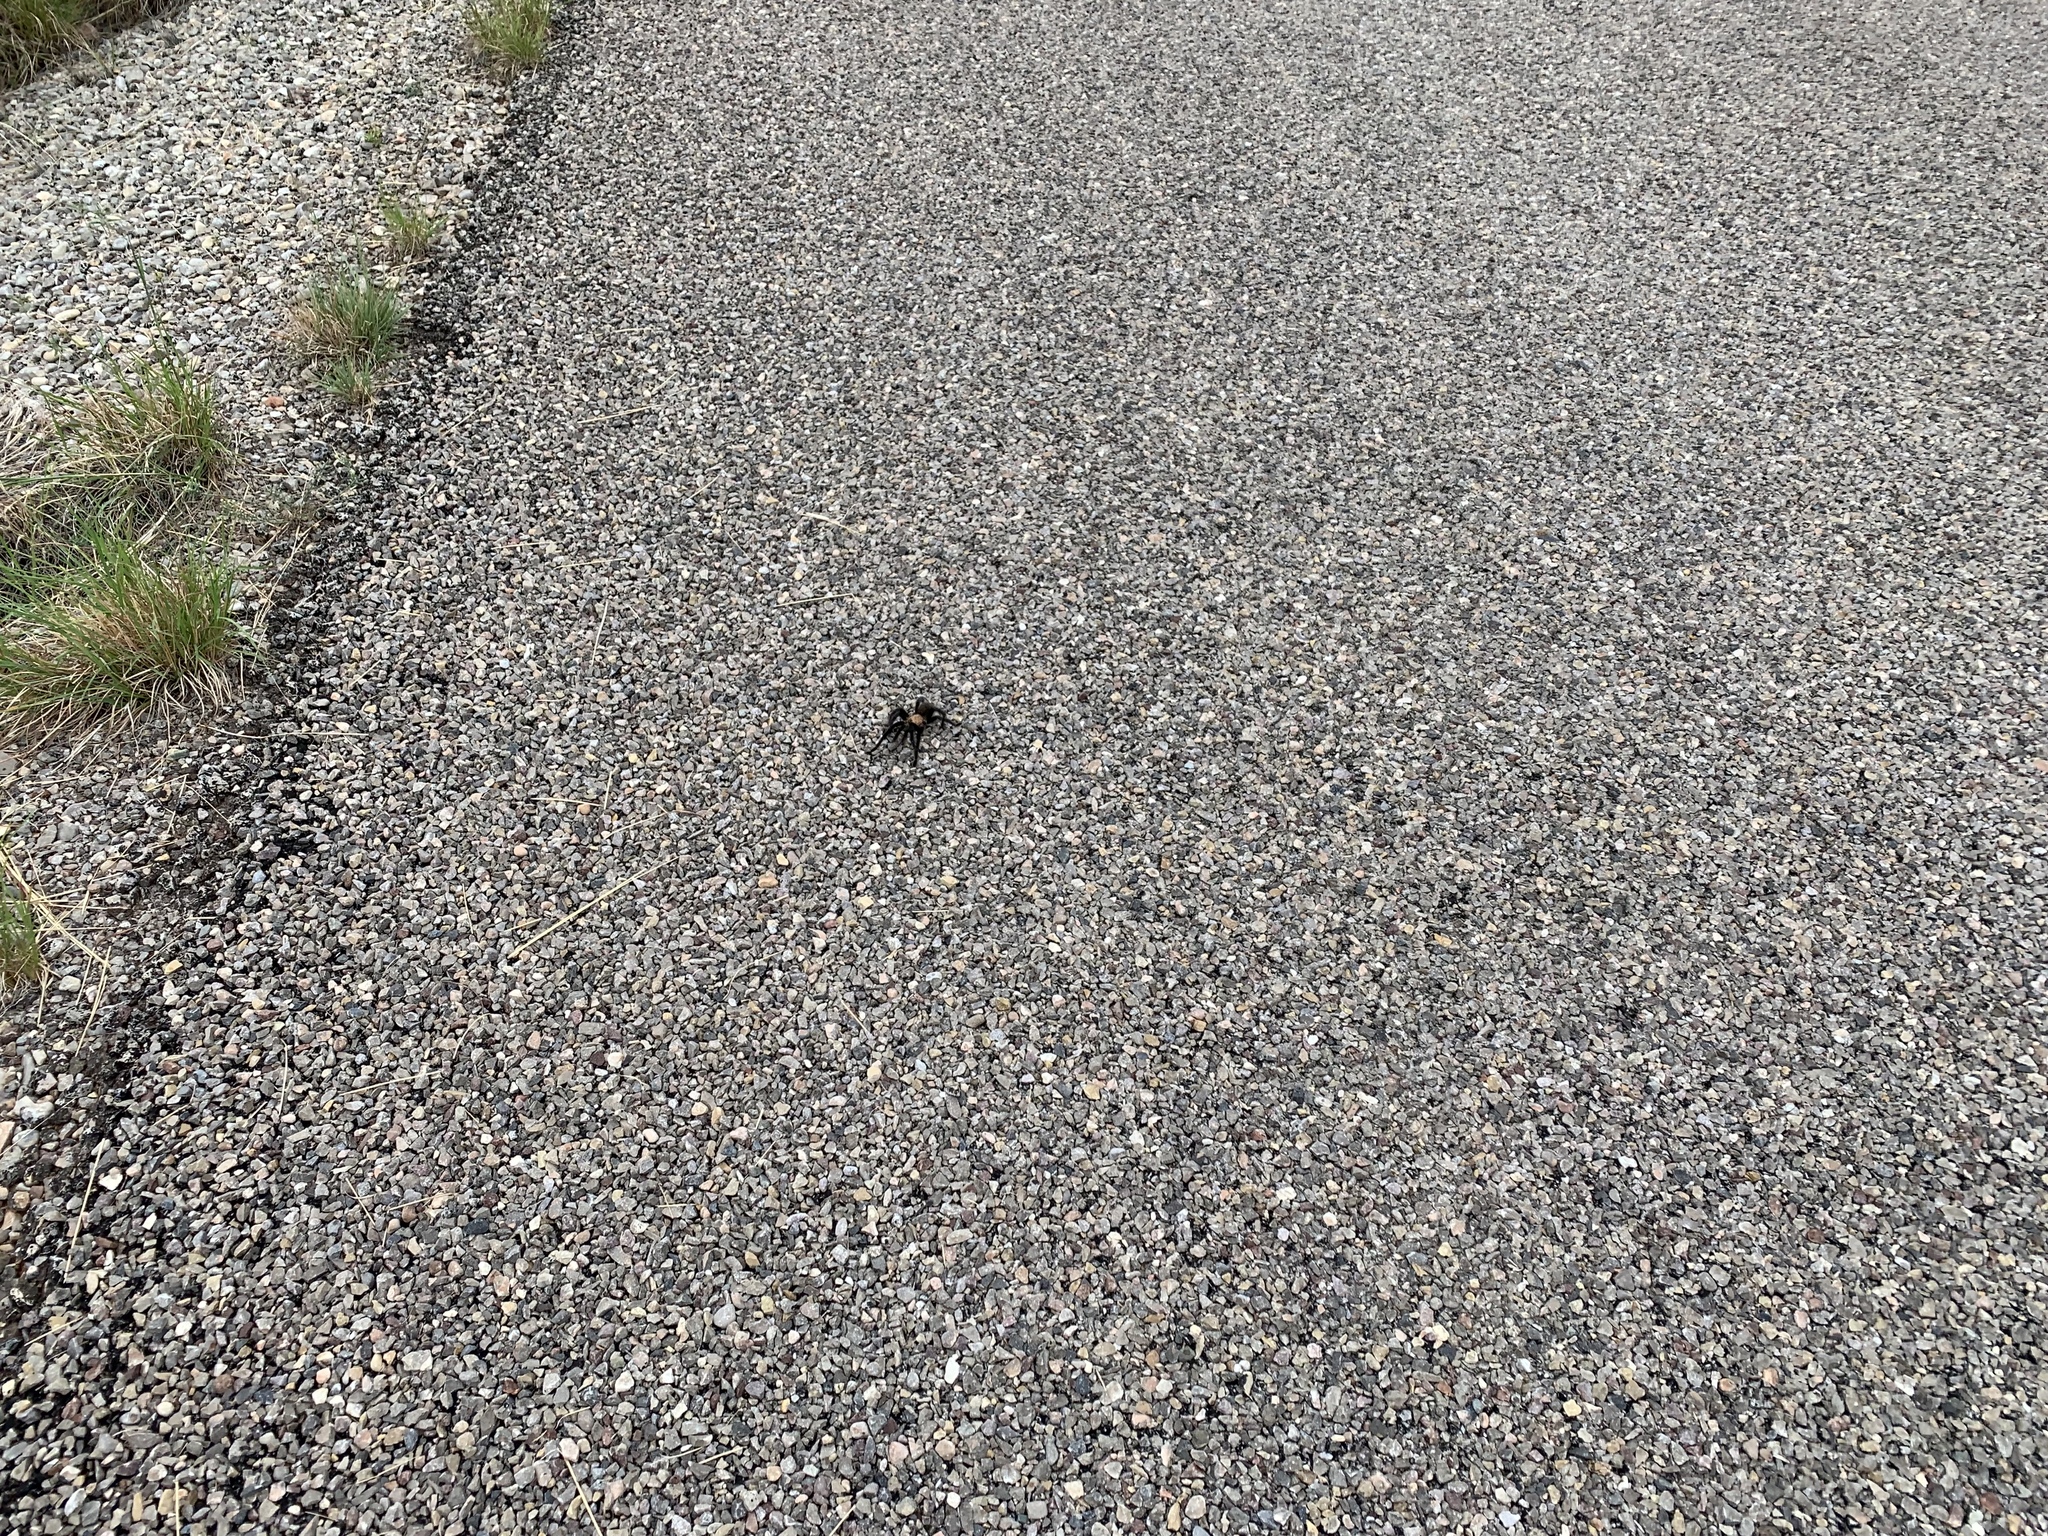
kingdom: Animalia
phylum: Arthropoda
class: Arachnida
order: Araneae
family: Theraphosidae
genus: Aphonopelma
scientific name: Aphonopelma hentzi
